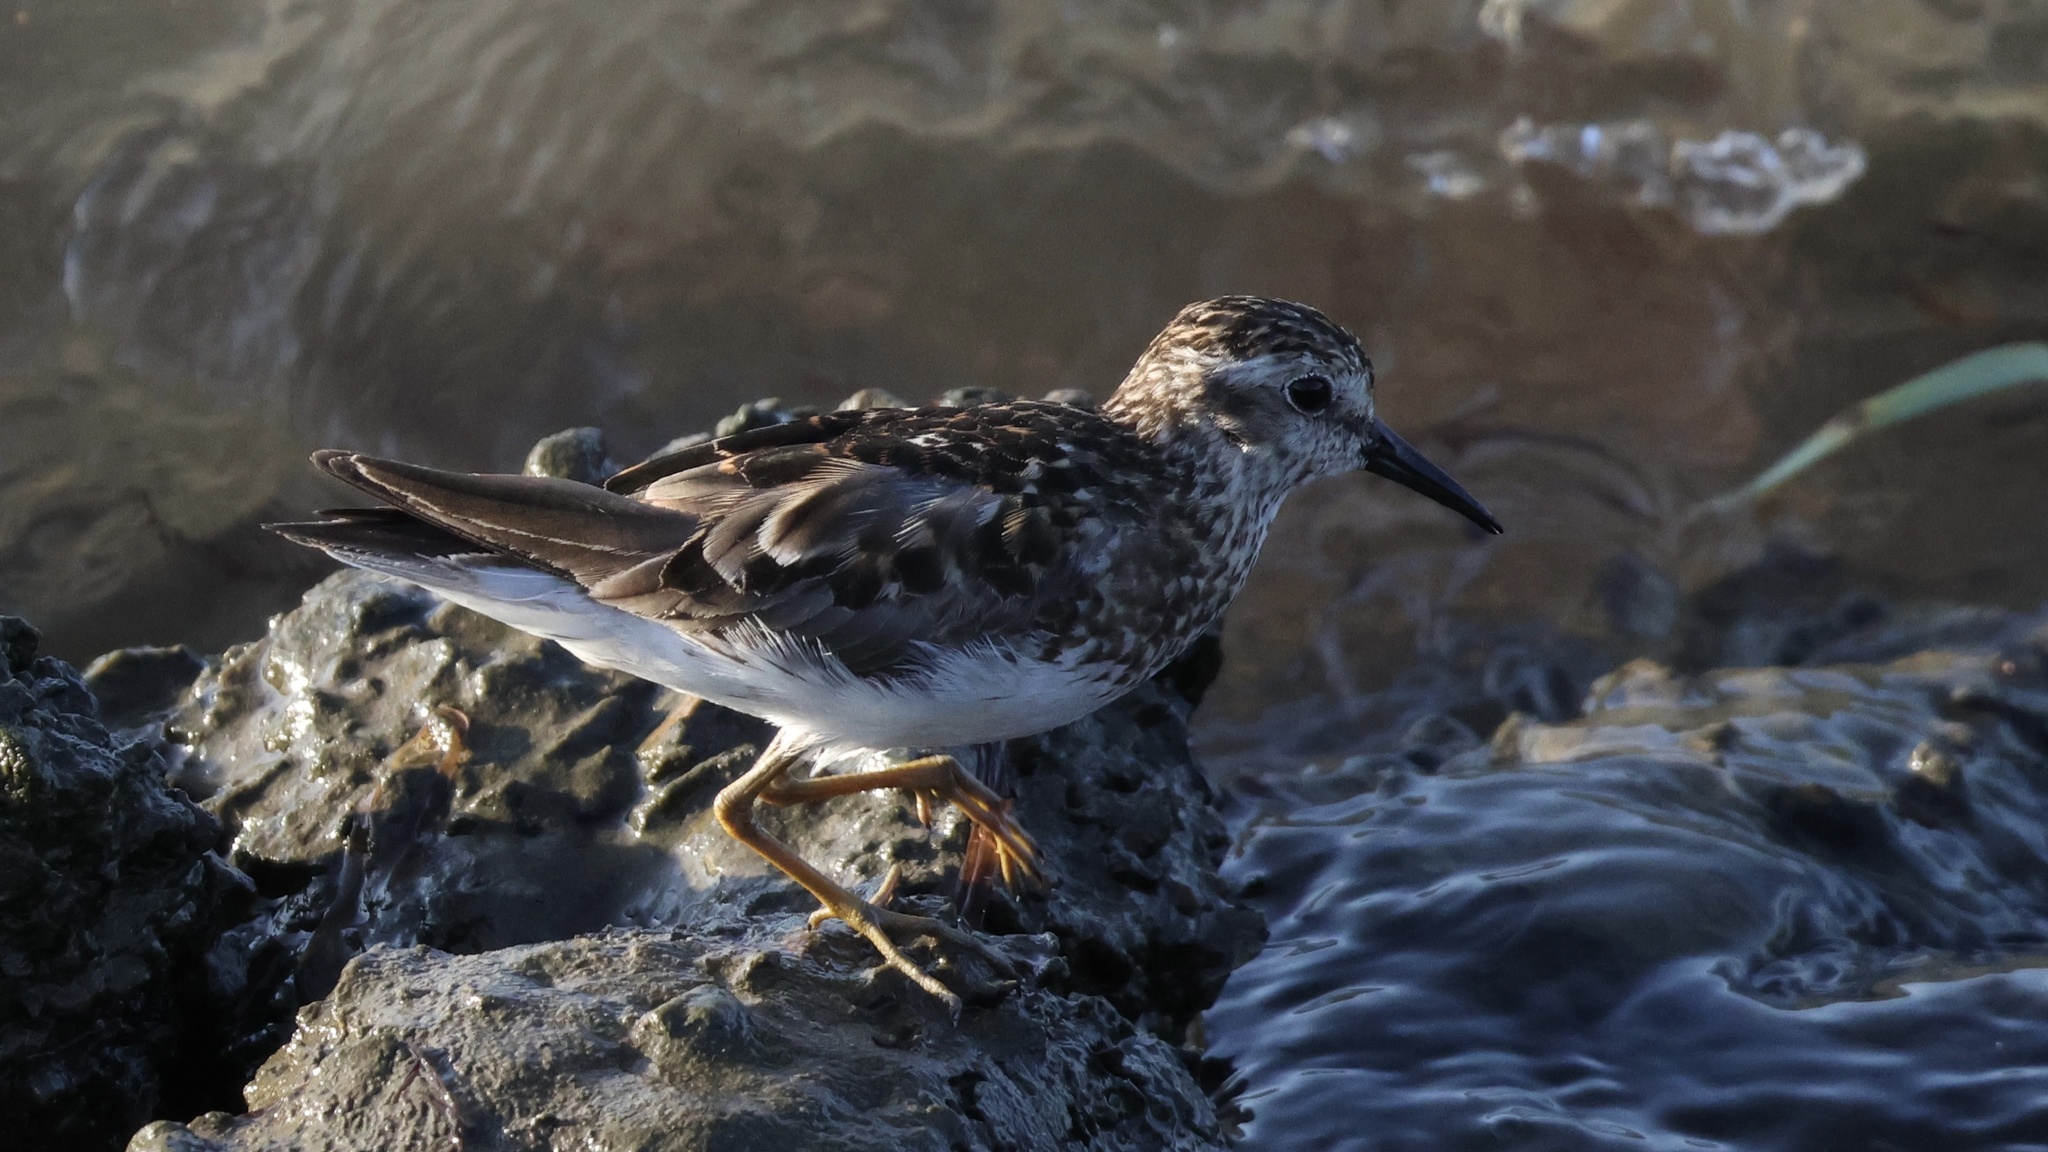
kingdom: Animalia
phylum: Chordata
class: Aves
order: Charadriiformes
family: Scolopacidae
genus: Calidris
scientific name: Calidris minutilla
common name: Least sandpiper
